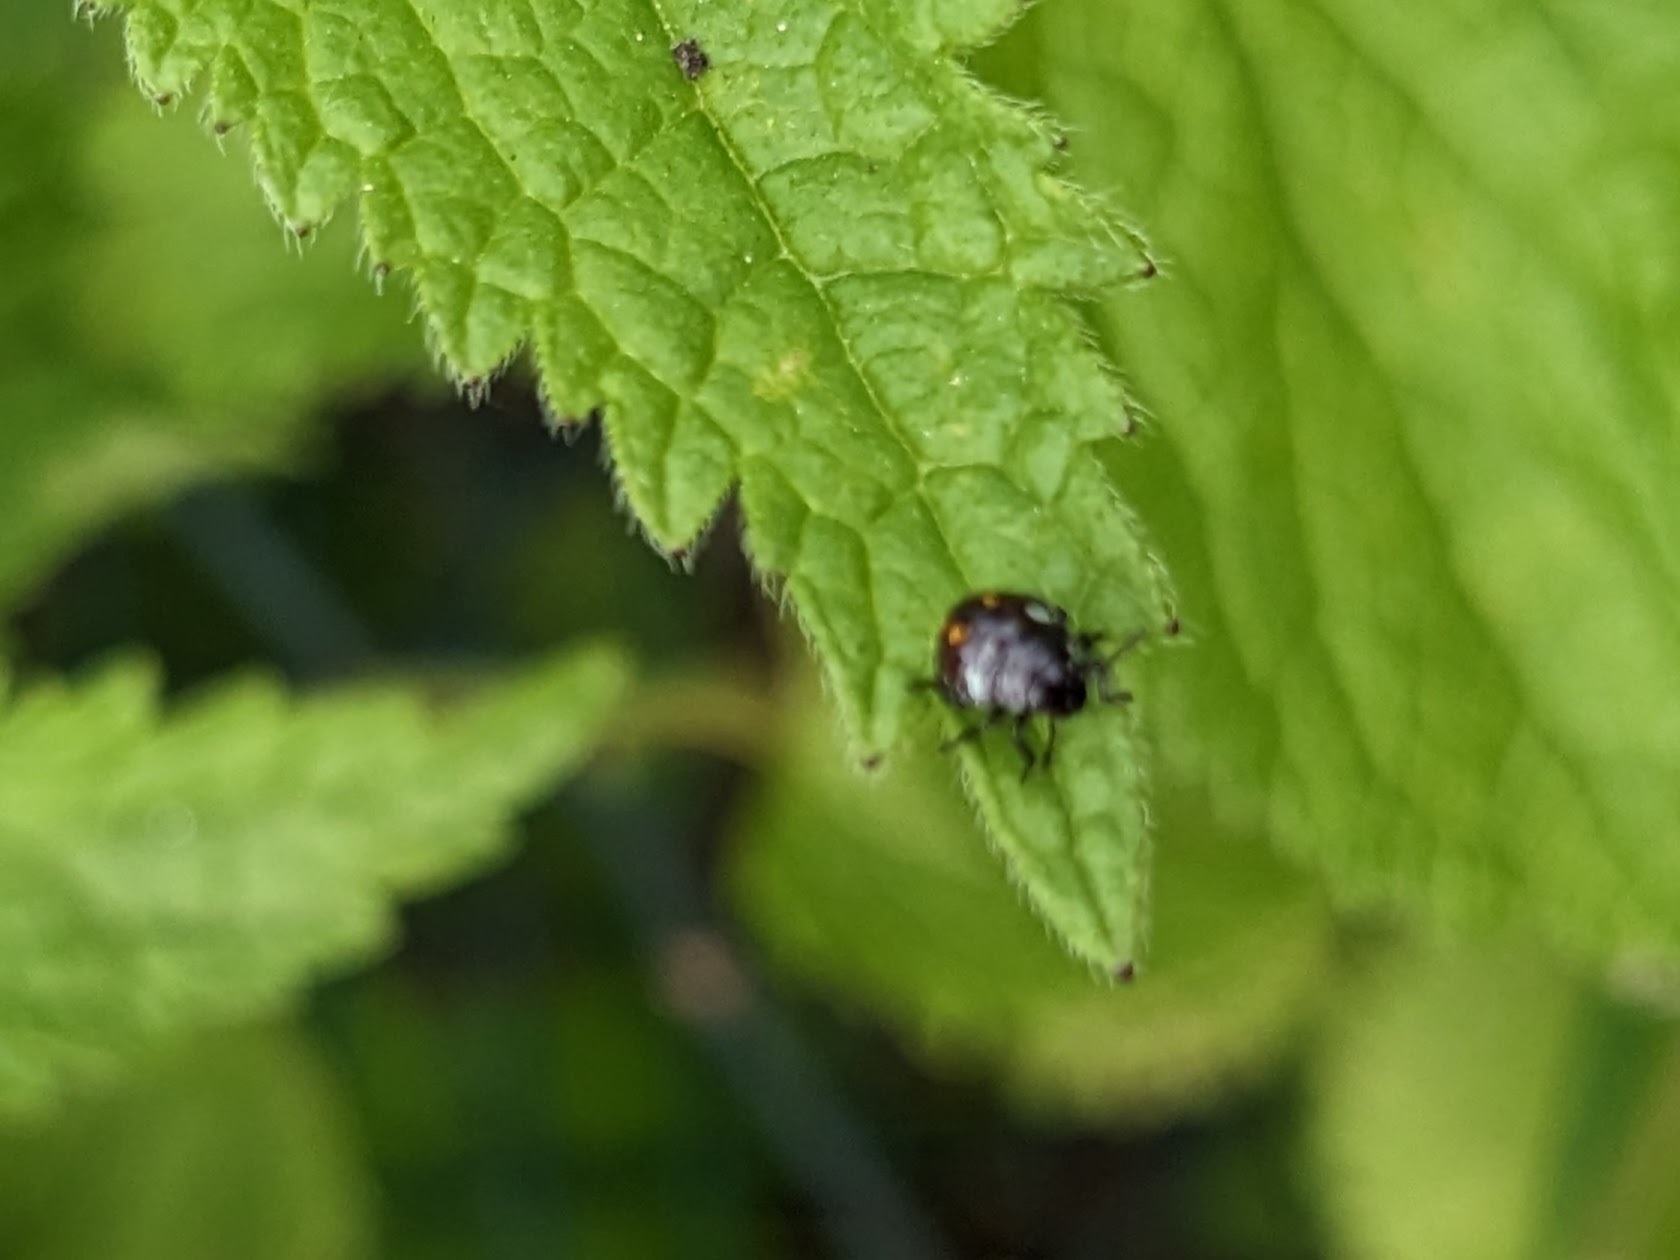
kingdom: Animalia
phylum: Arthropoda
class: Insecta
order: Hemiptera
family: Pentatomidae
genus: Nezara
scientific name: Nezara viridula
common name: Southern green stink bug
